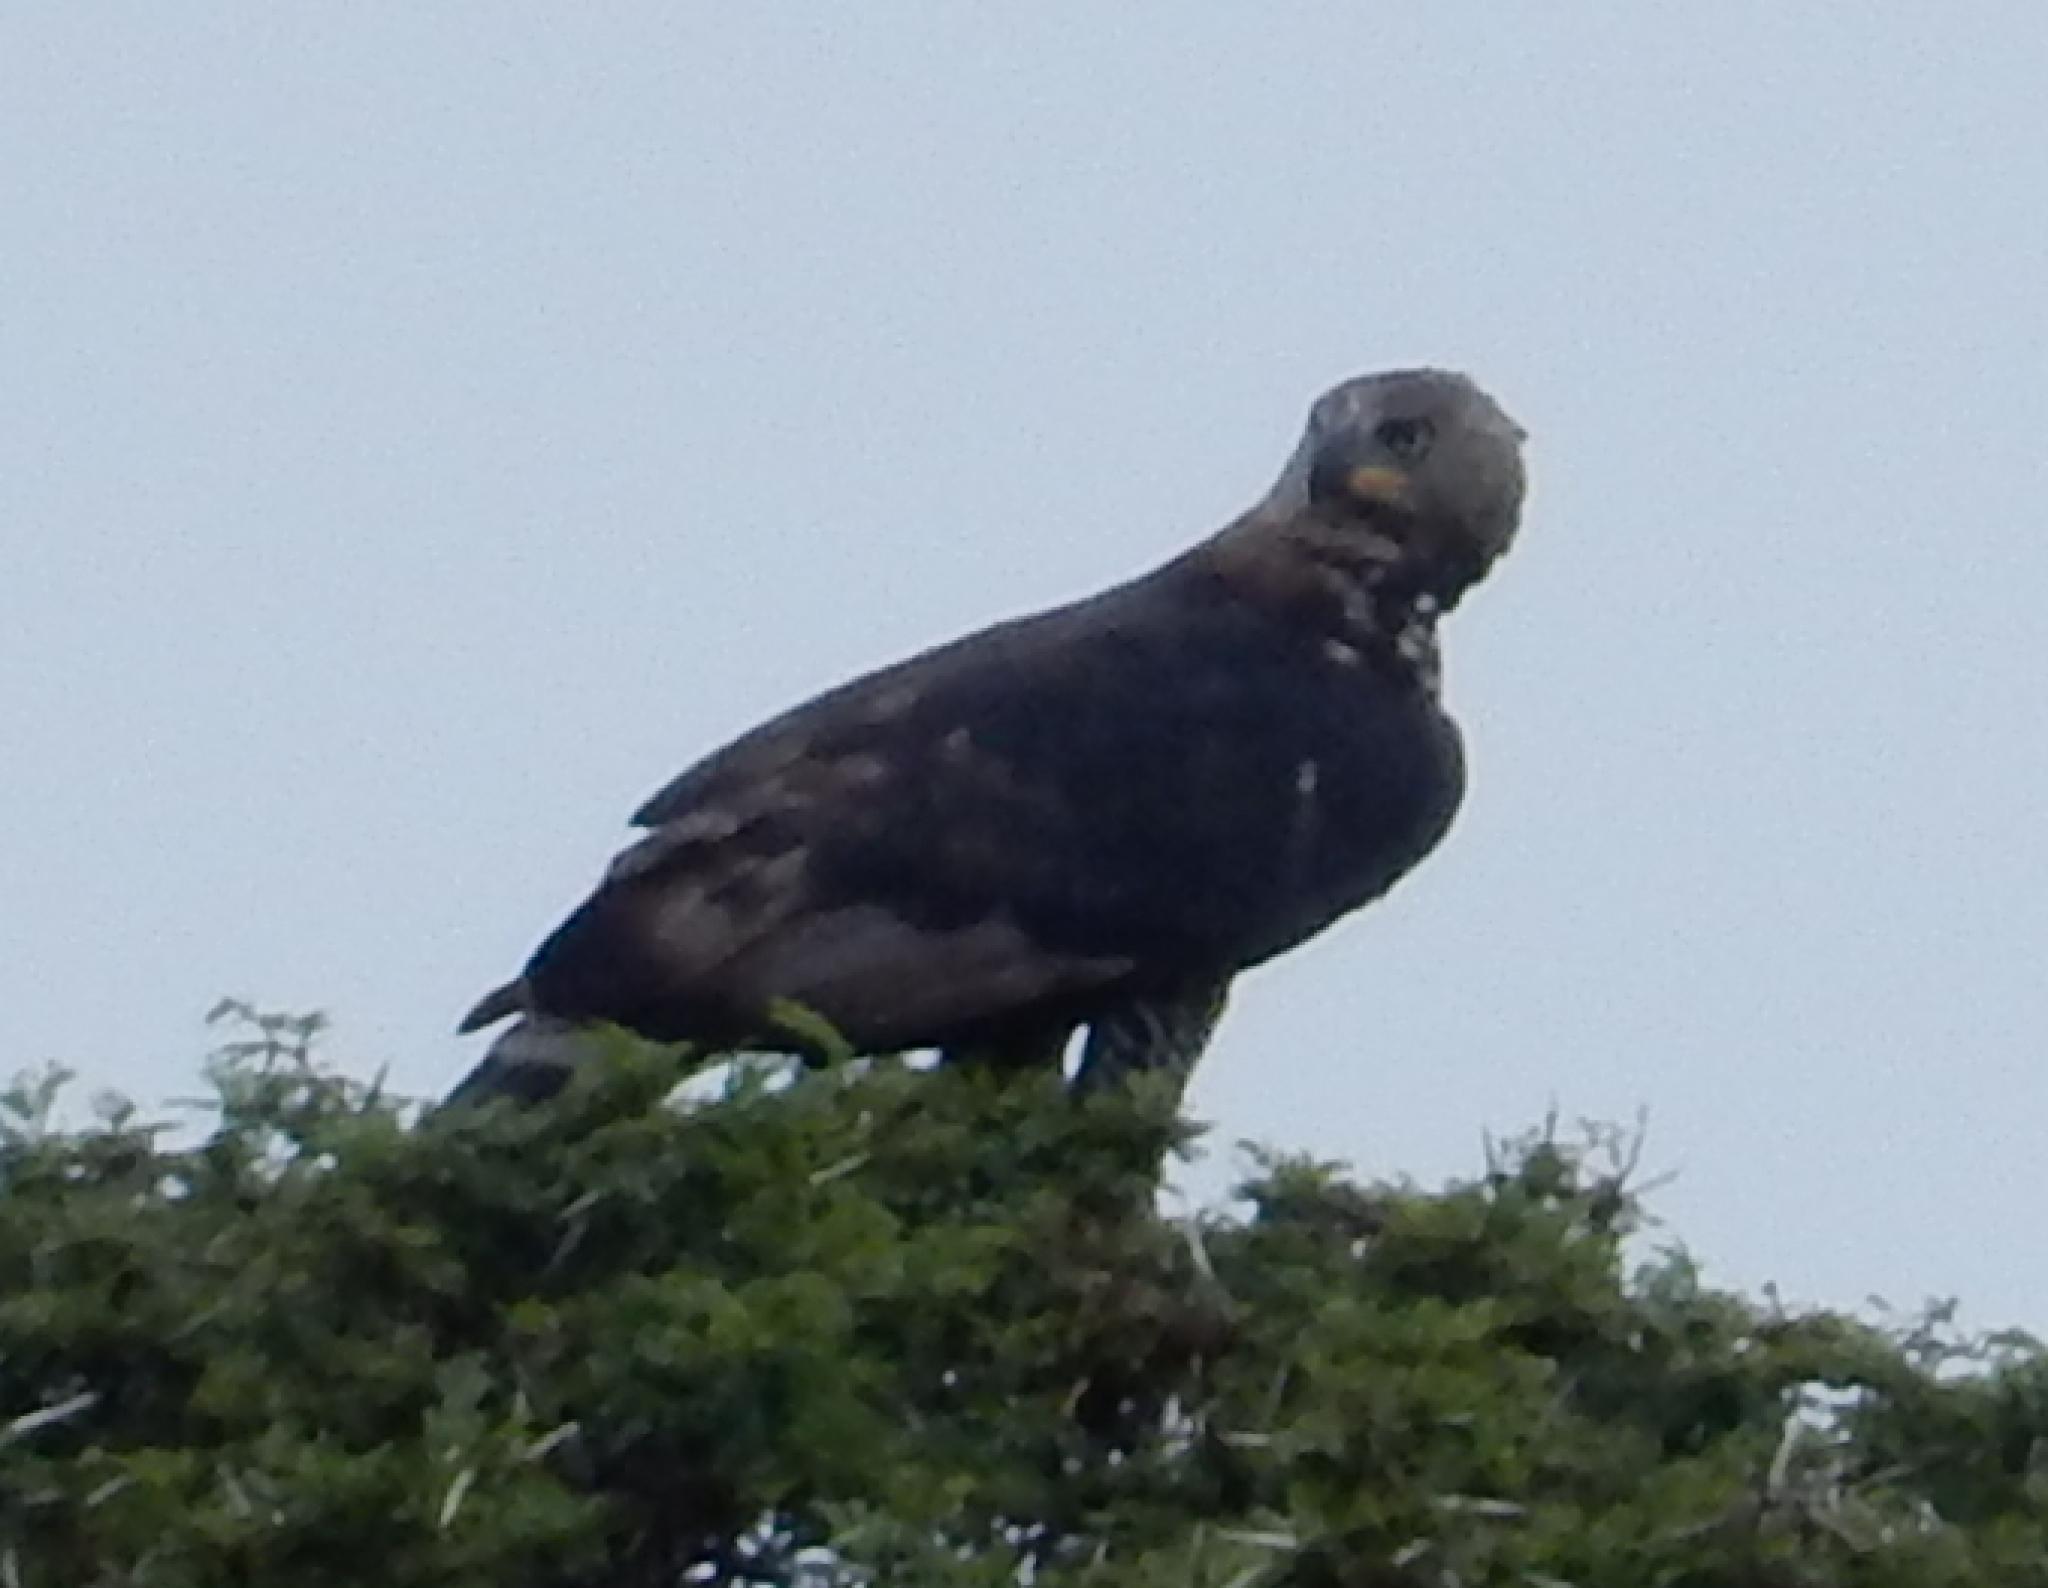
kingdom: Animalia
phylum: Chordata
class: Aves
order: Accipitriformes
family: Accipitridae
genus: Stephanoaetus
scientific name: Stephanoaetus coronatus
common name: Crowned eagle
